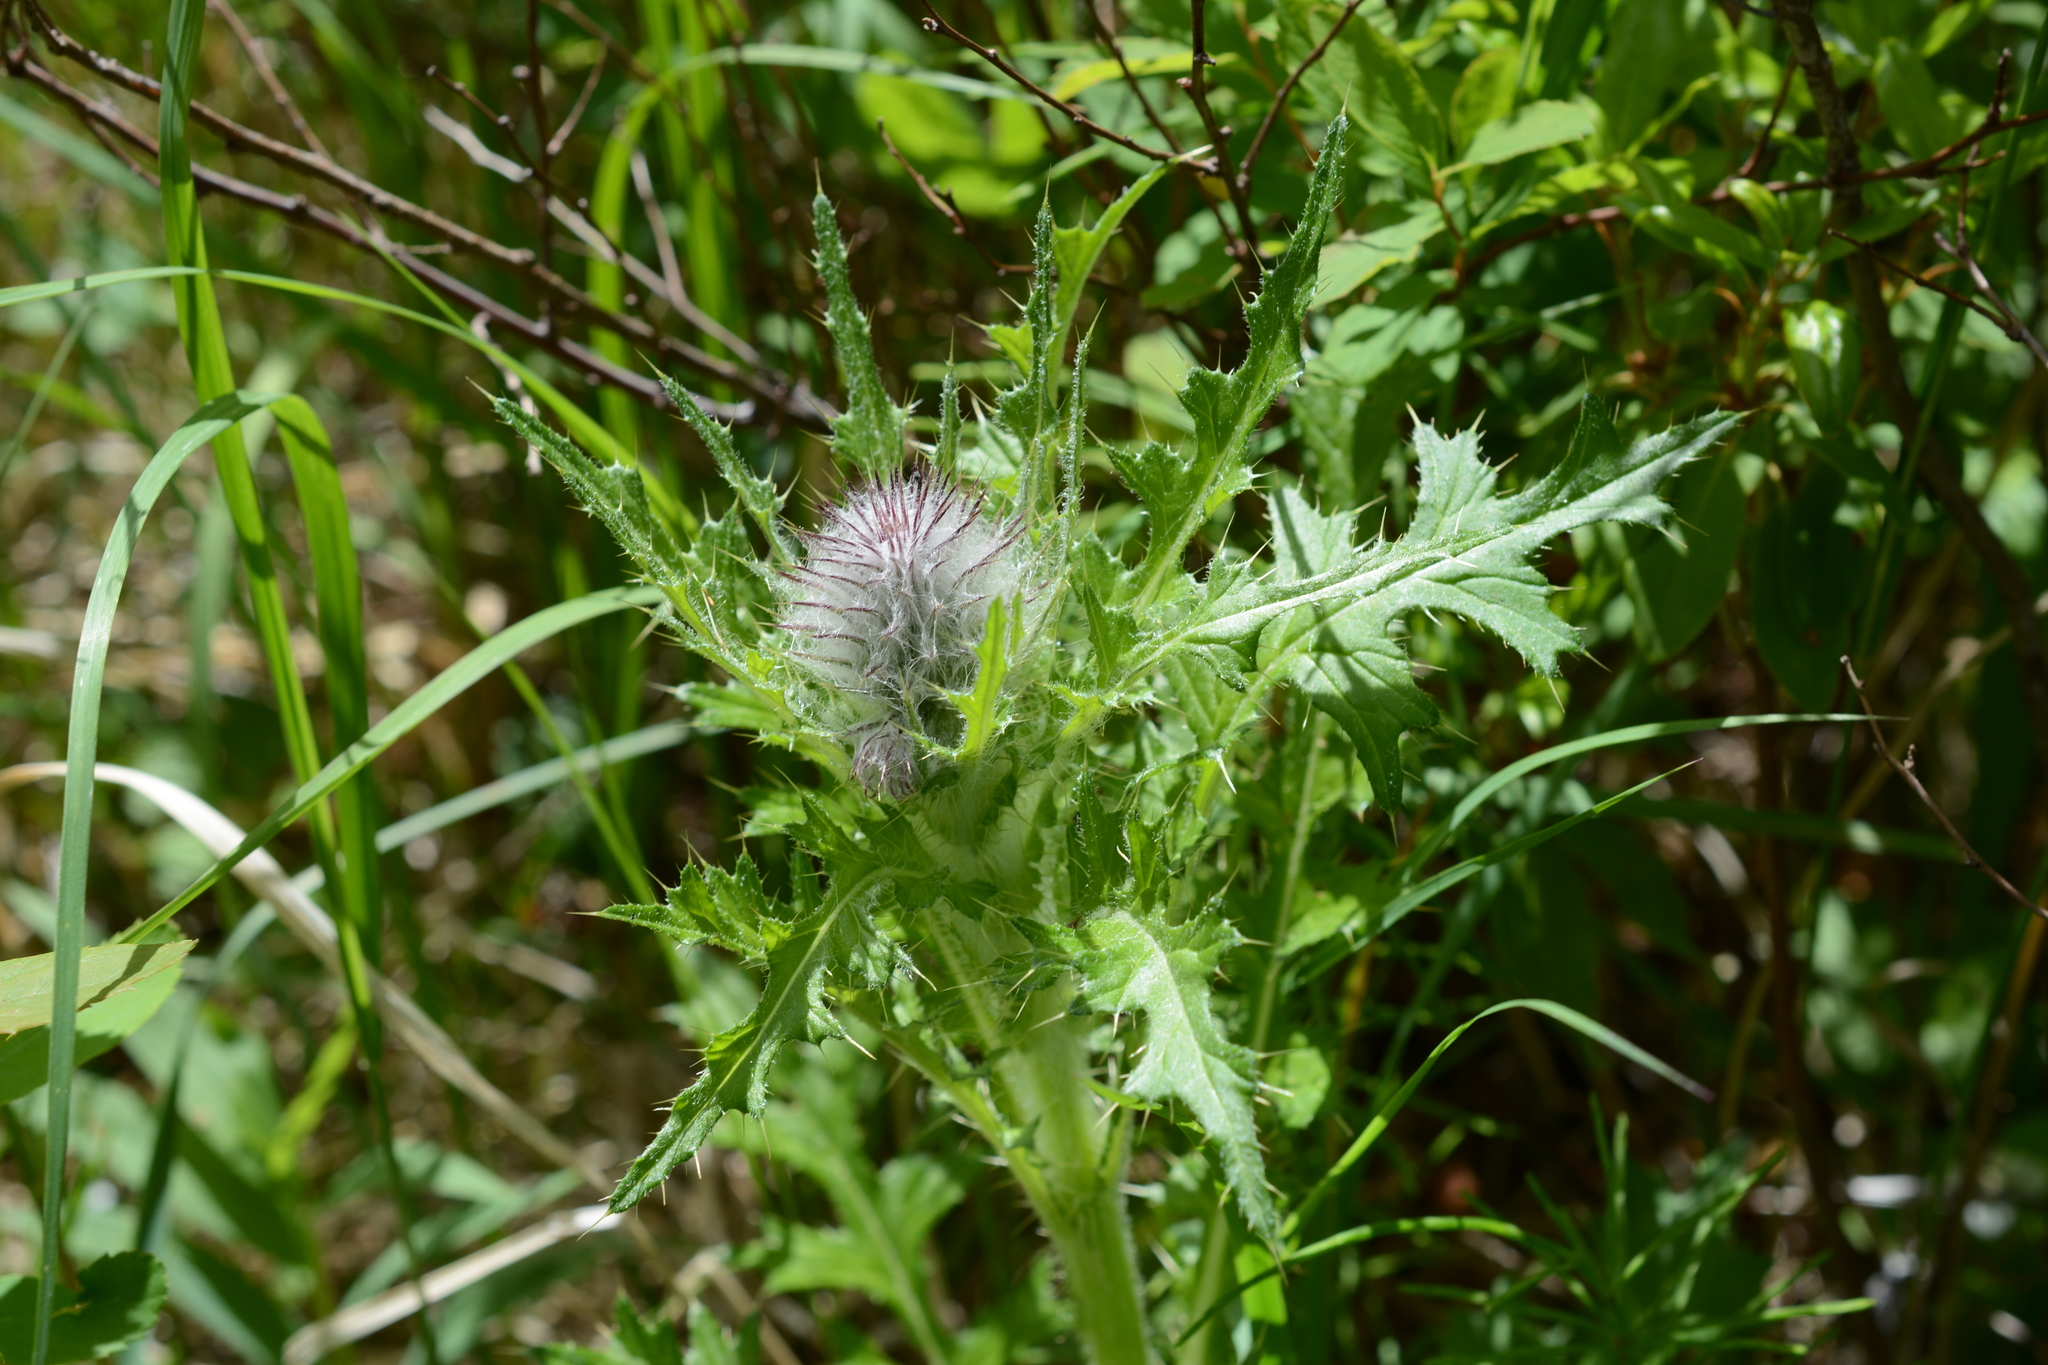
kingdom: Plantae
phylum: Tracheophyta
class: Magnoliopsida
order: Asterales
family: Asteraceae
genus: Cirsium
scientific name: Cirsium edule
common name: Indian thistle
